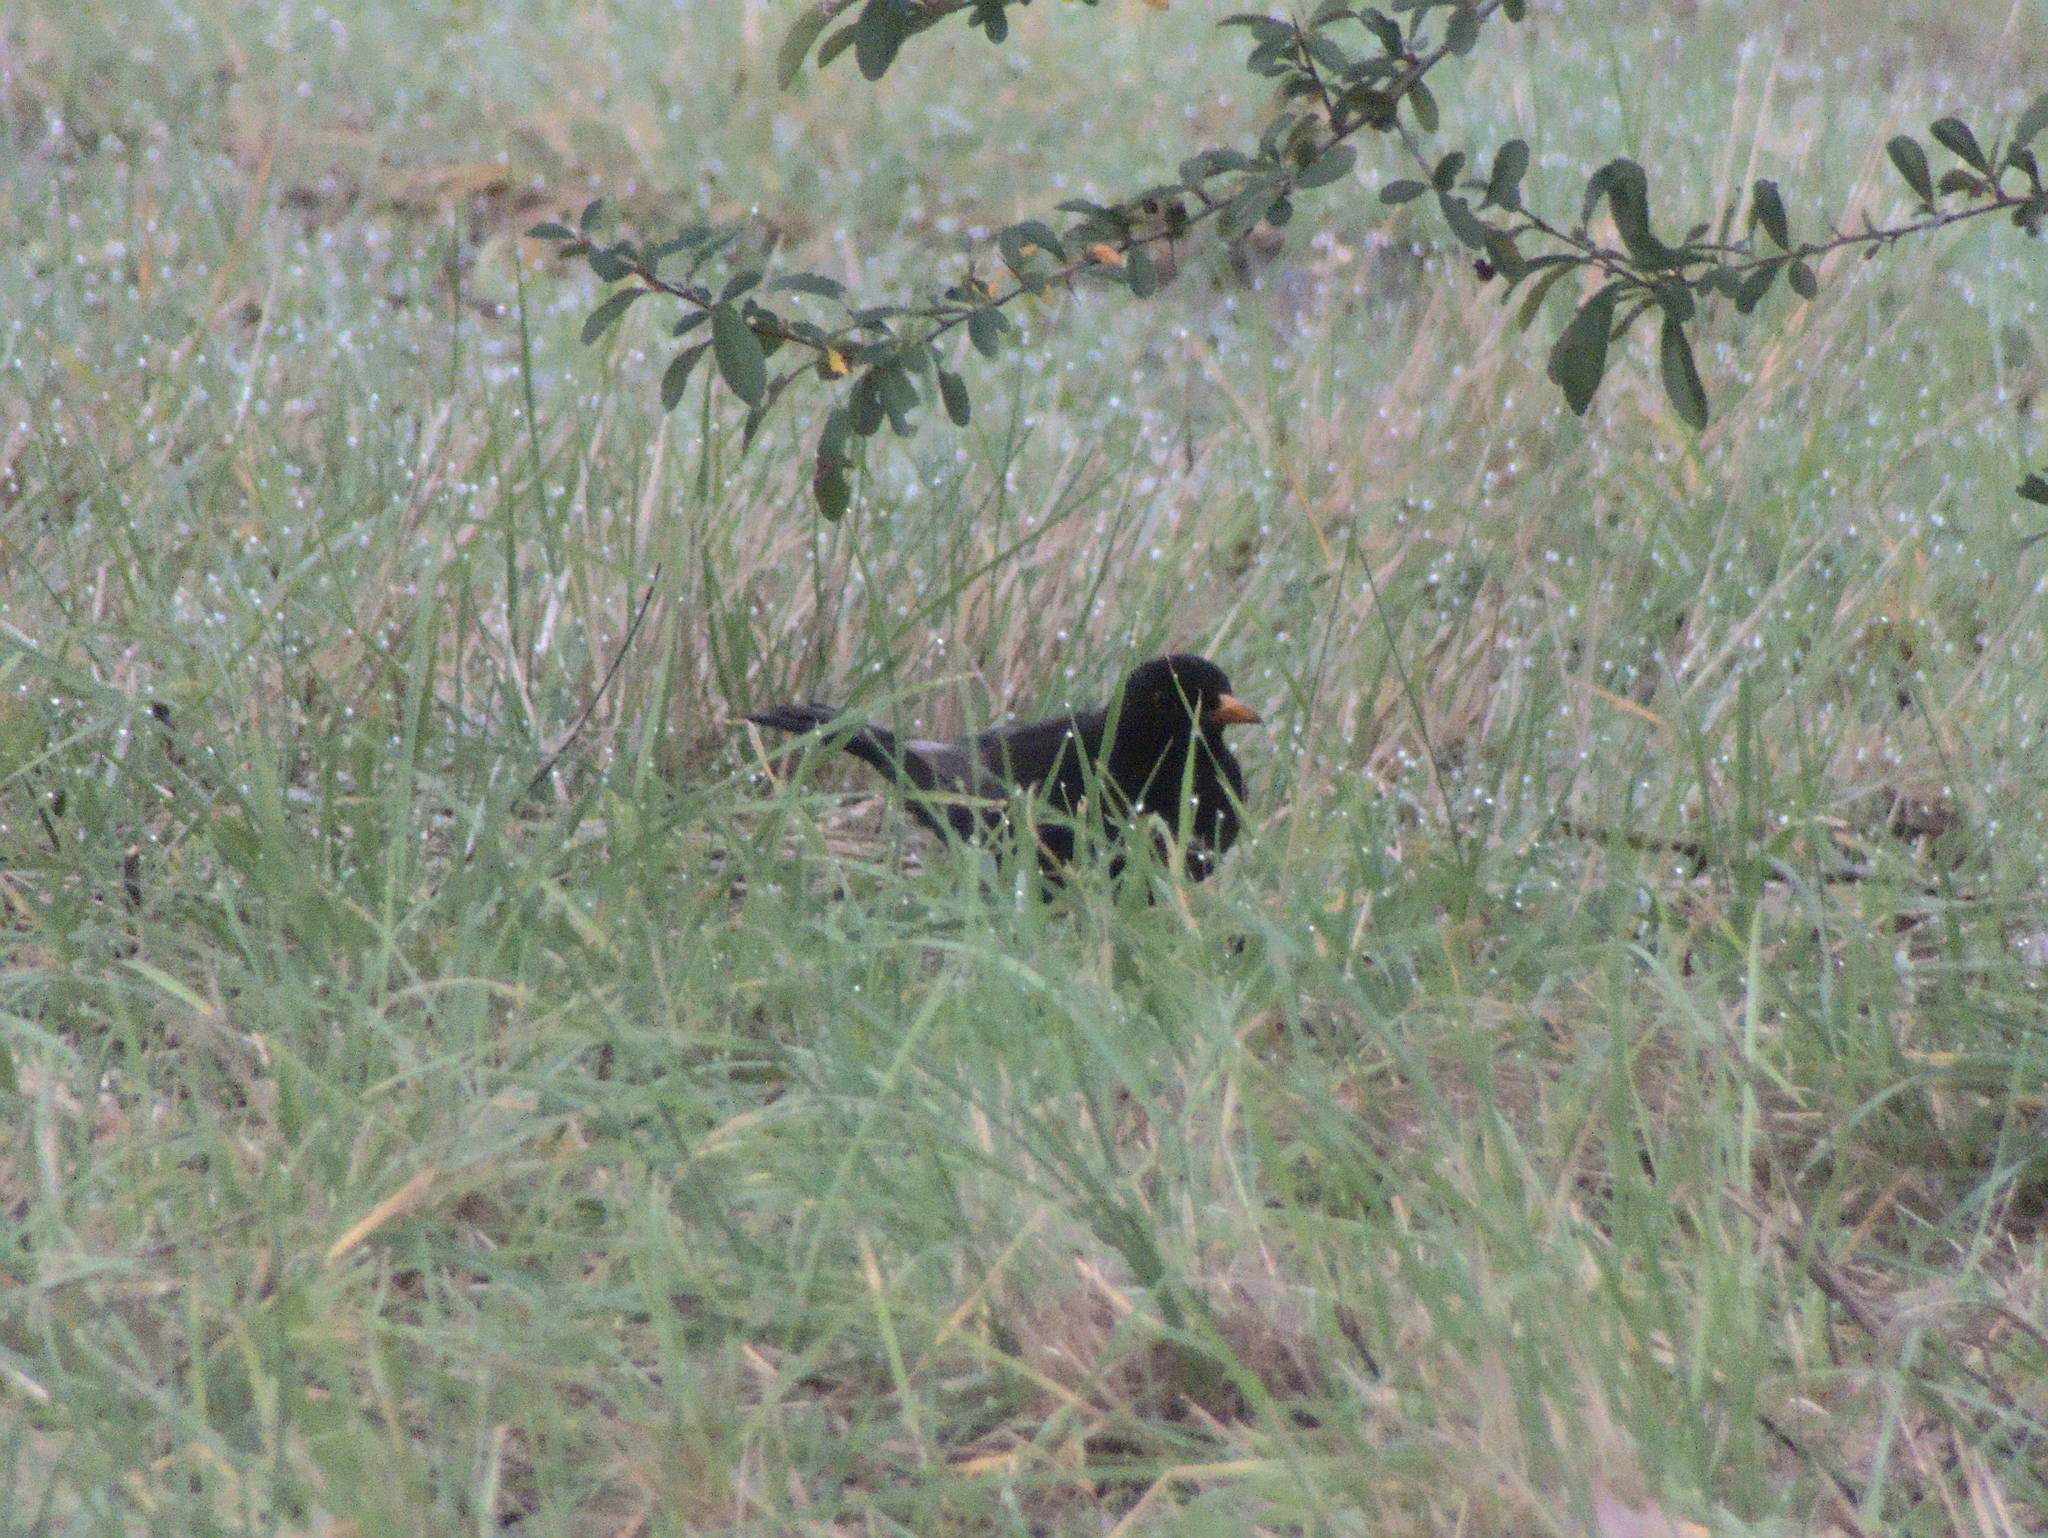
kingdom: Animalia
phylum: Chordata
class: Aves
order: Passeriformes
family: Turdidae
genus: Turdus
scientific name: Turdus merula
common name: Common blackbird
